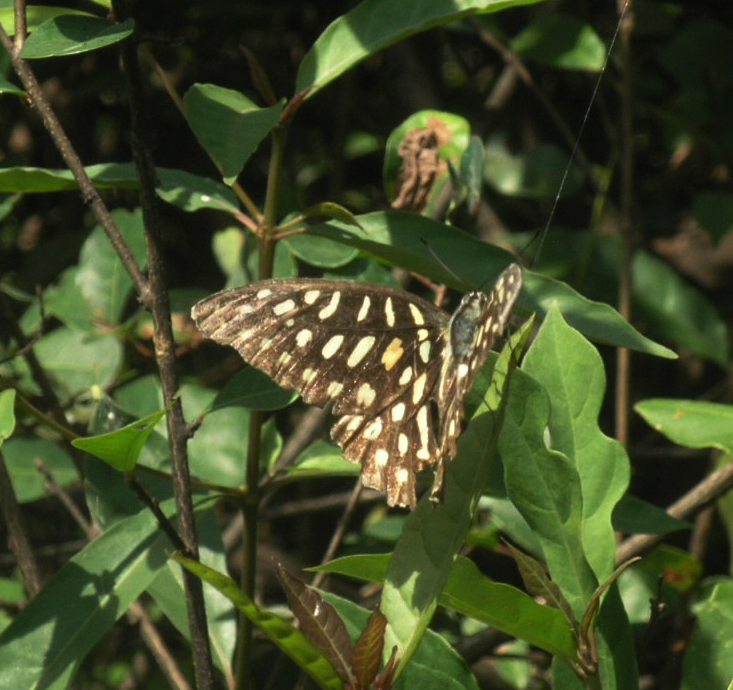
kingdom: Animalia
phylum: Arthropoda
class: Insecta
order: Lepidoptera
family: Papilionidae
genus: Graphium
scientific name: Graphium arycles
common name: Spotted jay
